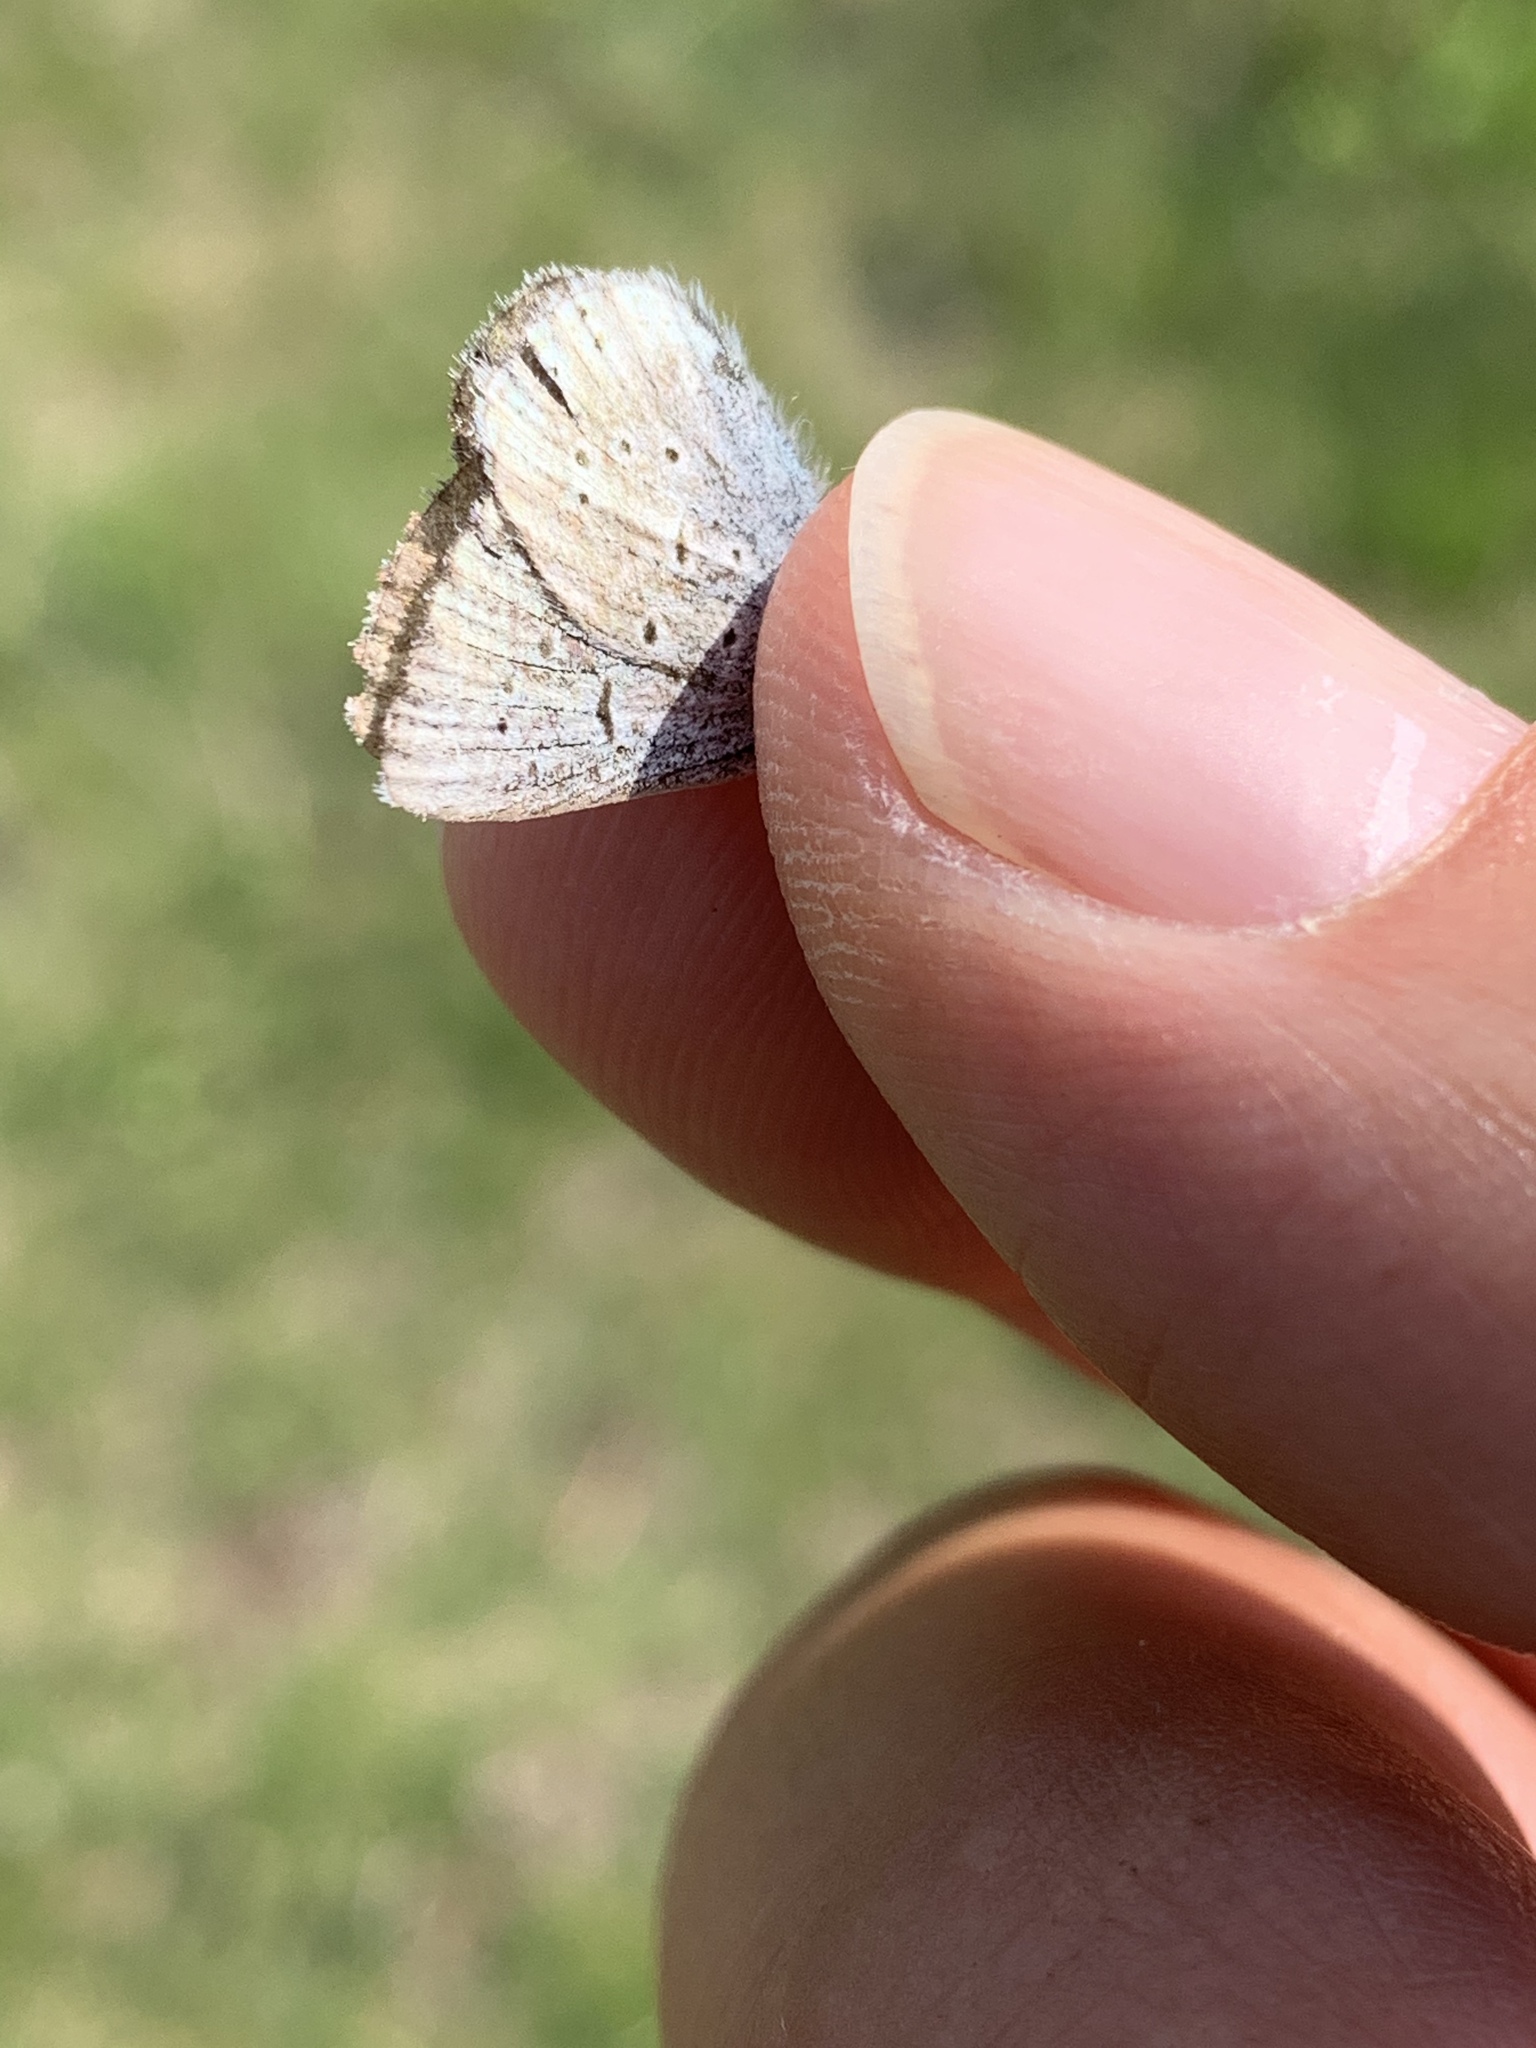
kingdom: Animalia
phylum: Arthropoda
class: Insecta
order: Lepidoptera
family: Lycaenidae
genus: Icaricia
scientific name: Icaricia saepiolus
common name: Greenish blue
